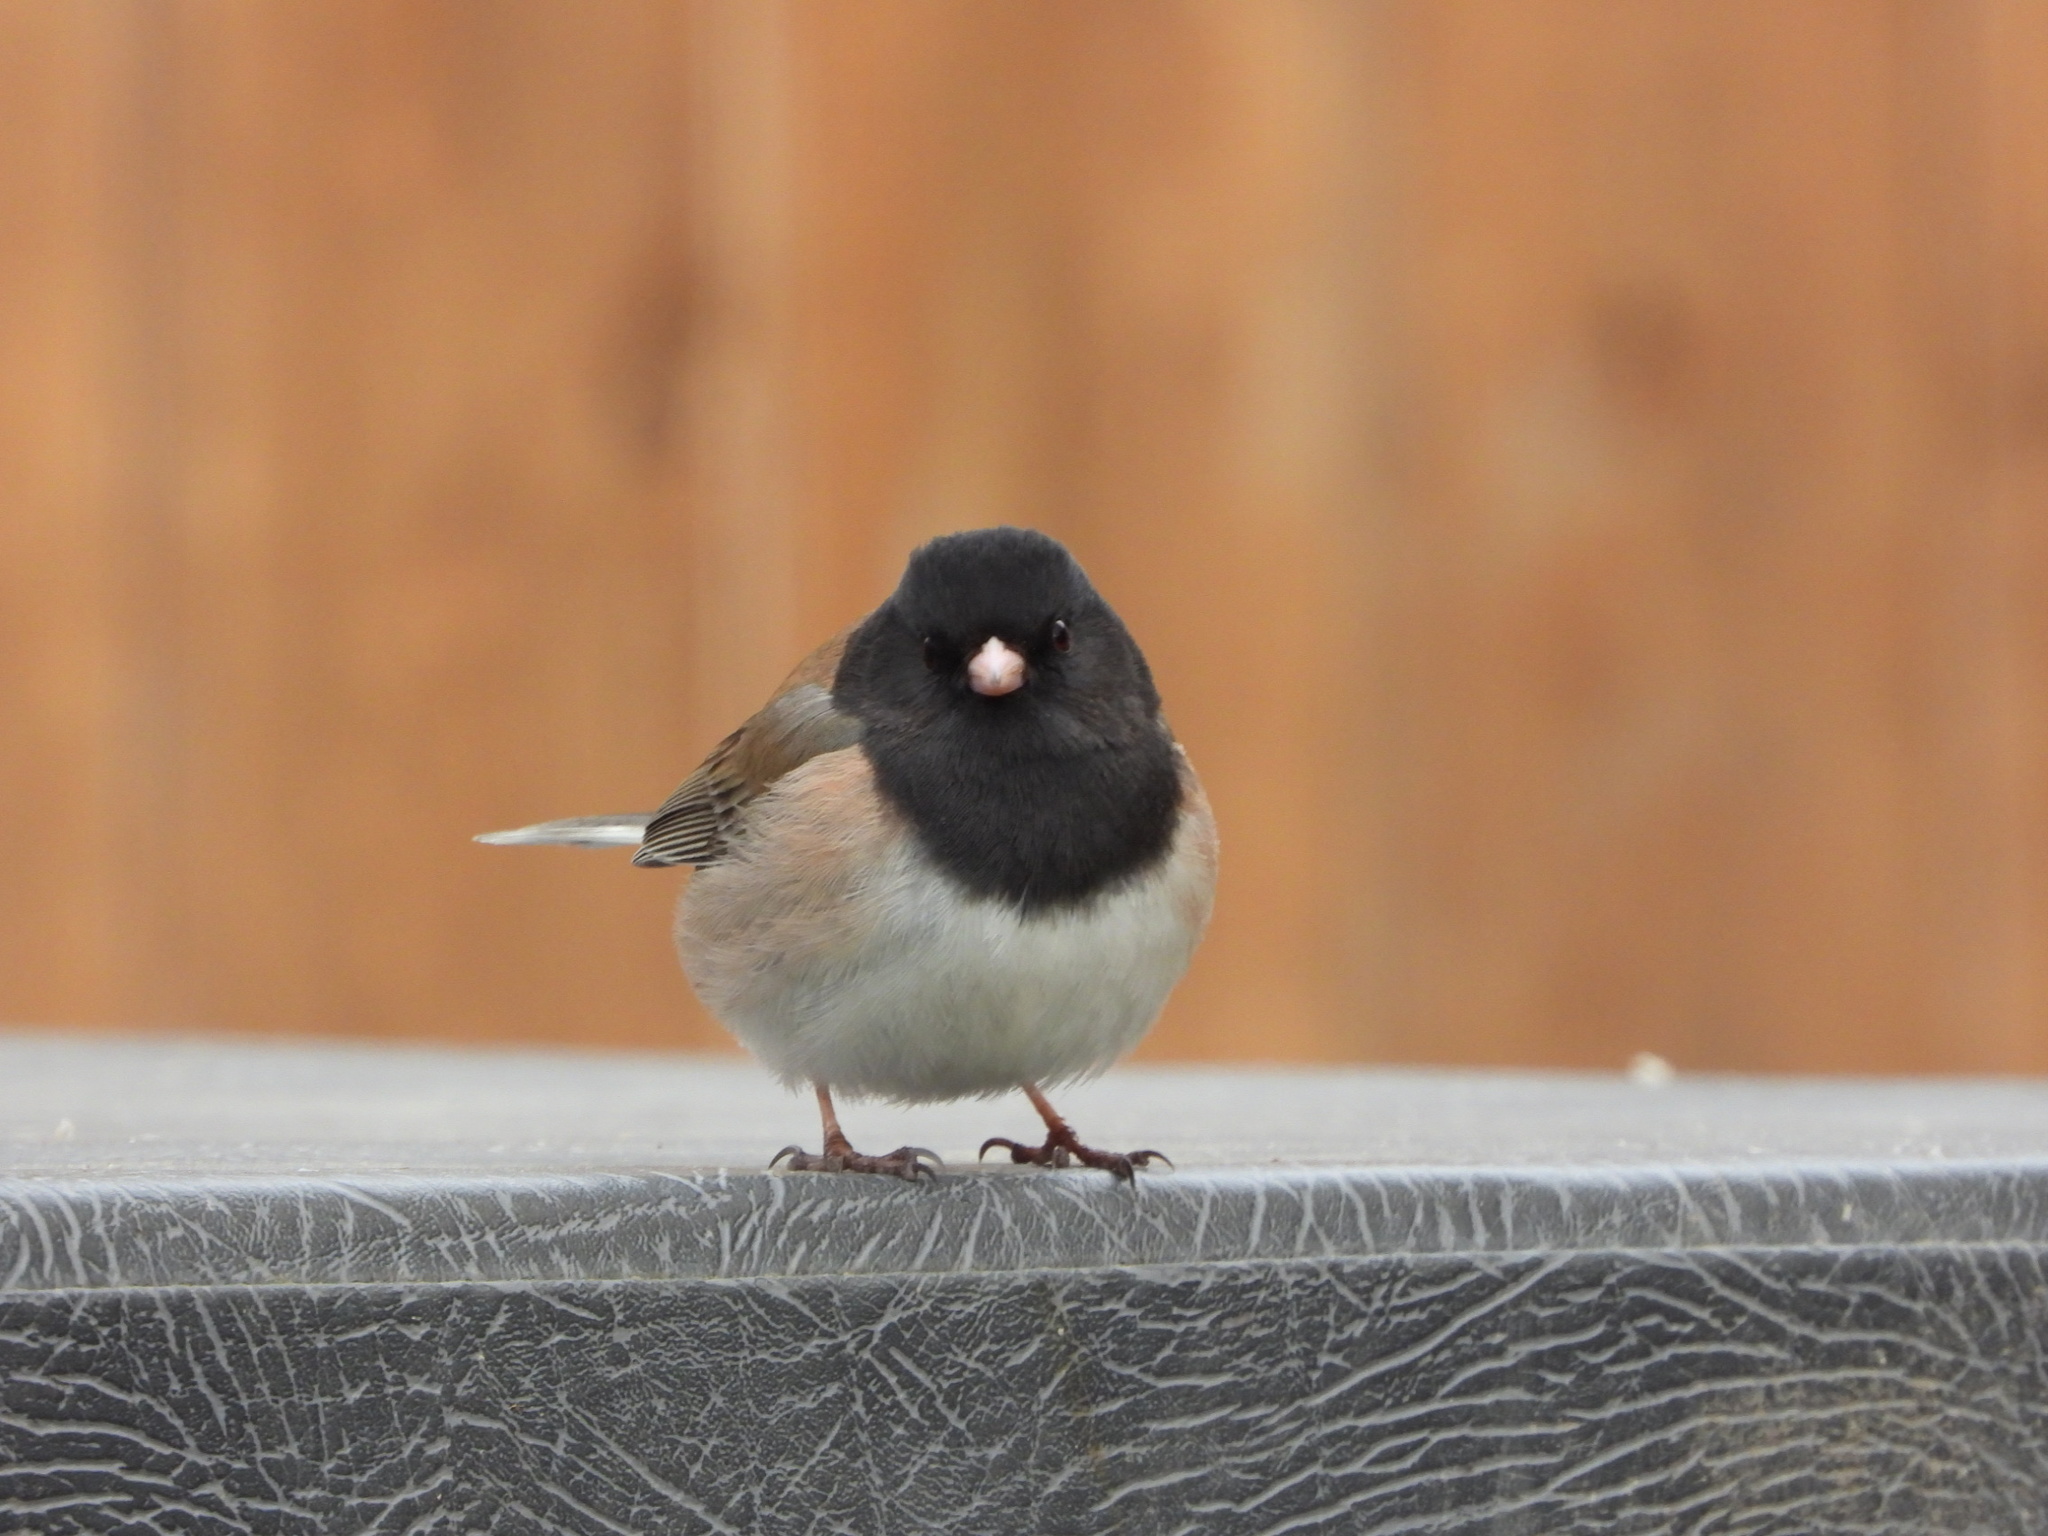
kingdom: Animalia
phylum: Chordata
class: Aves
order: Passeriformes
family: Passerellidae
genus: Junco
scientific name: Junco hyemalis
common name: Dark-eyed junco
